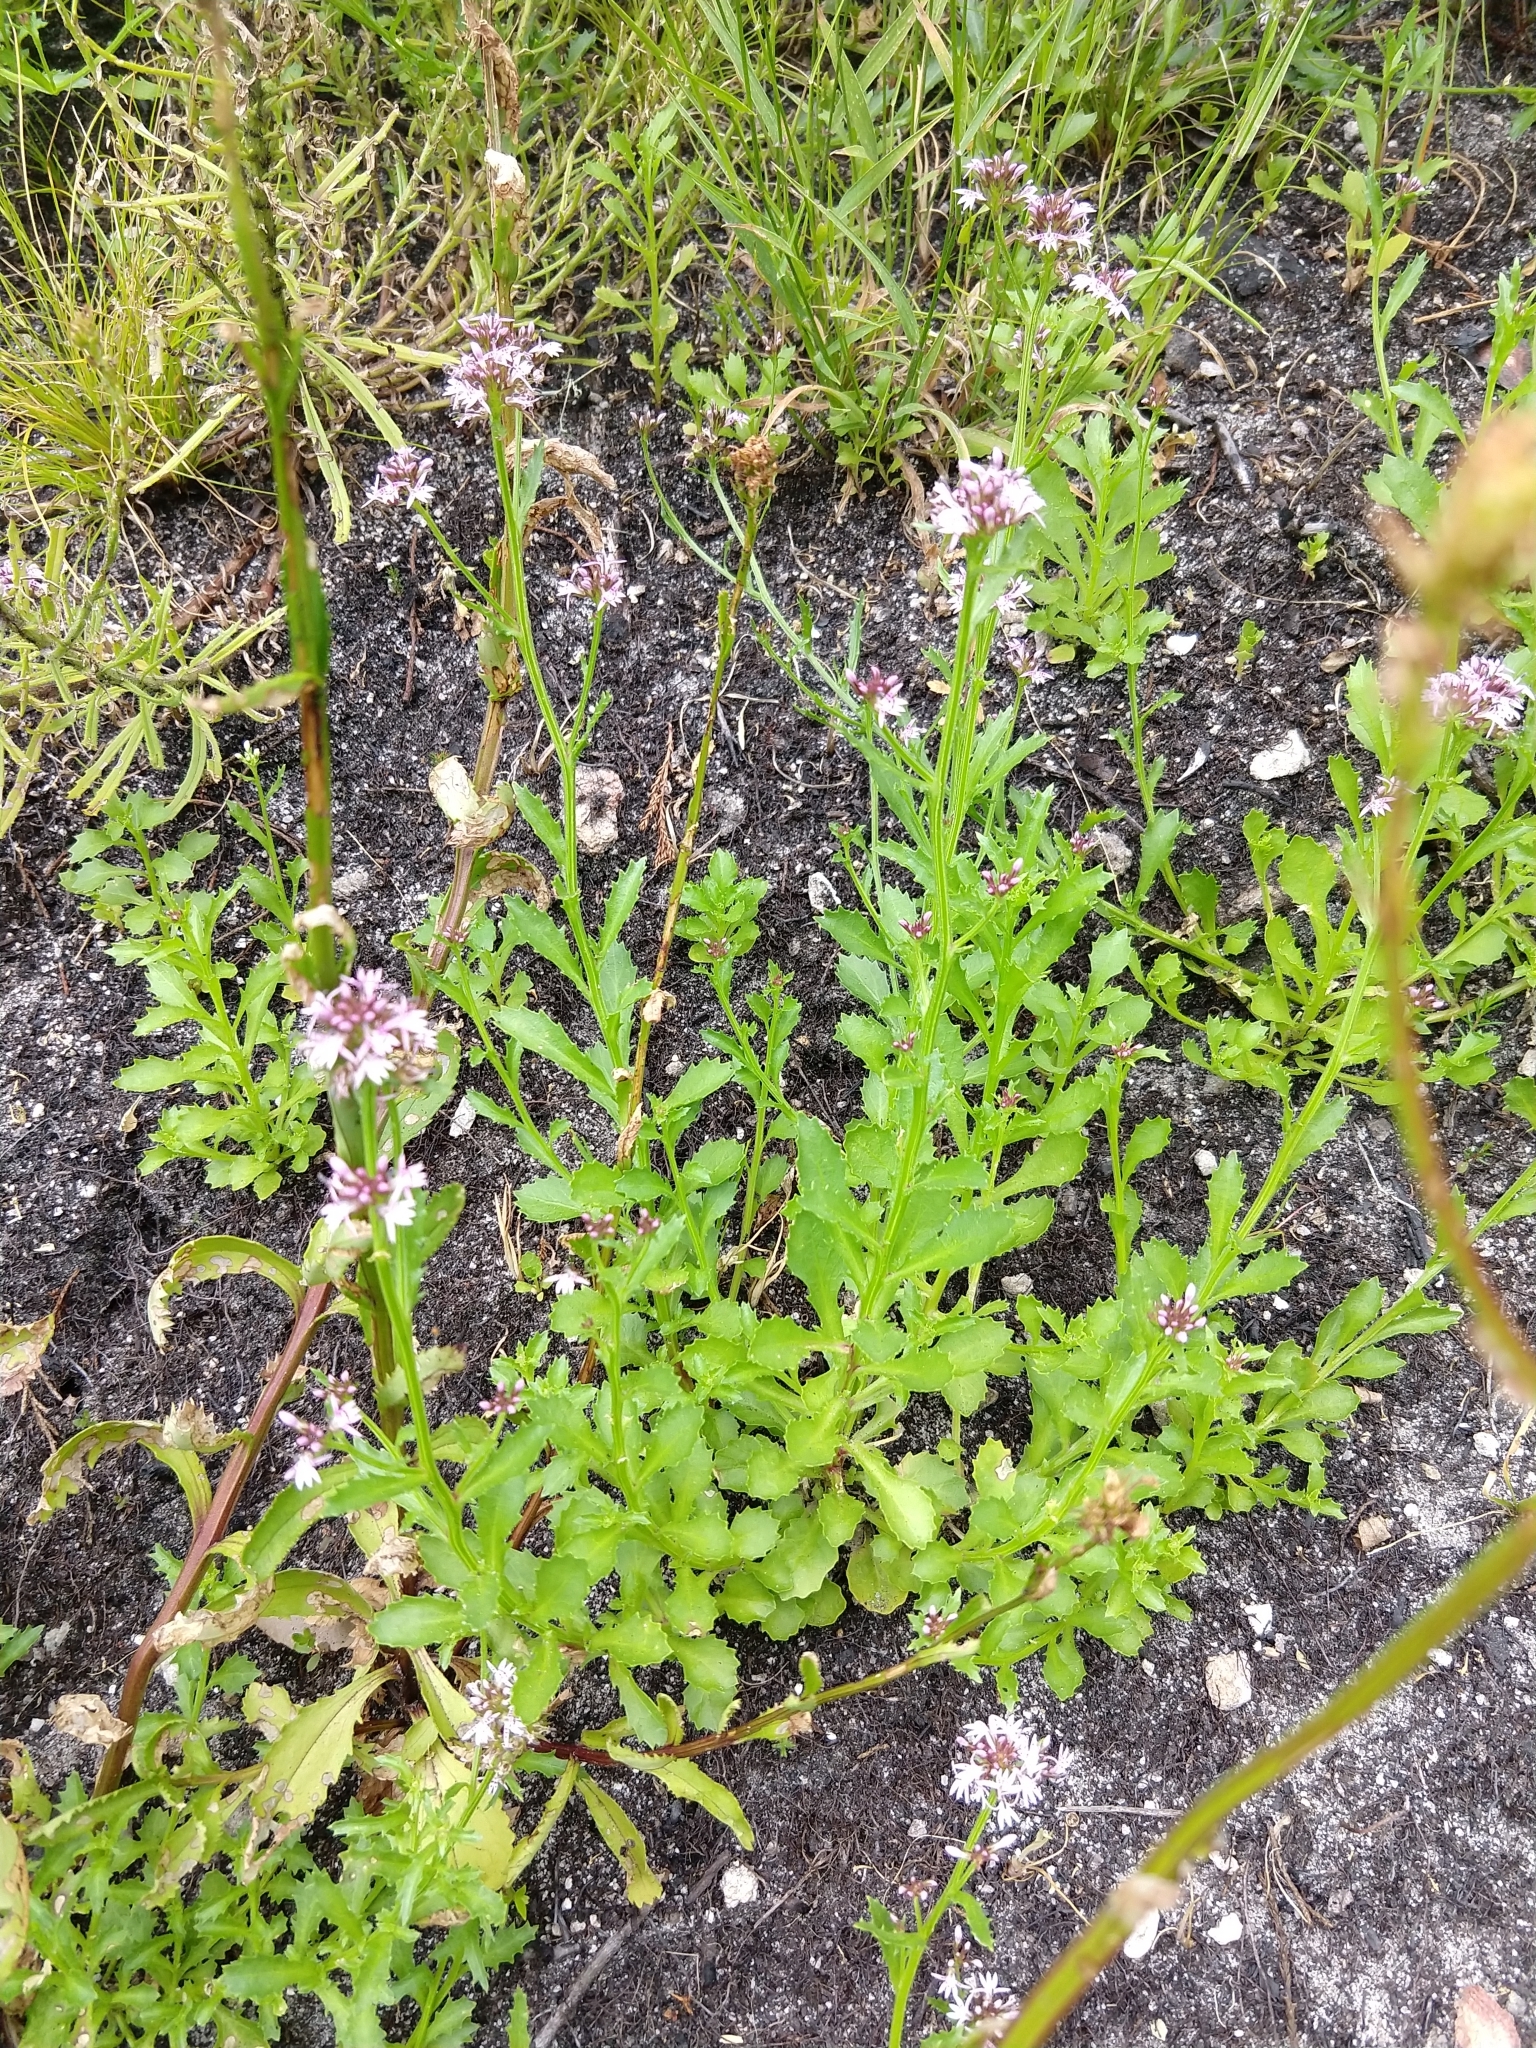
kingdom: Plantae
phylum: Tracheophyta
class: Magnoliopsida
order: Asterales
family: Campanulaceae
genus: Lobelia
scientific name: Lobelia jasionoides
